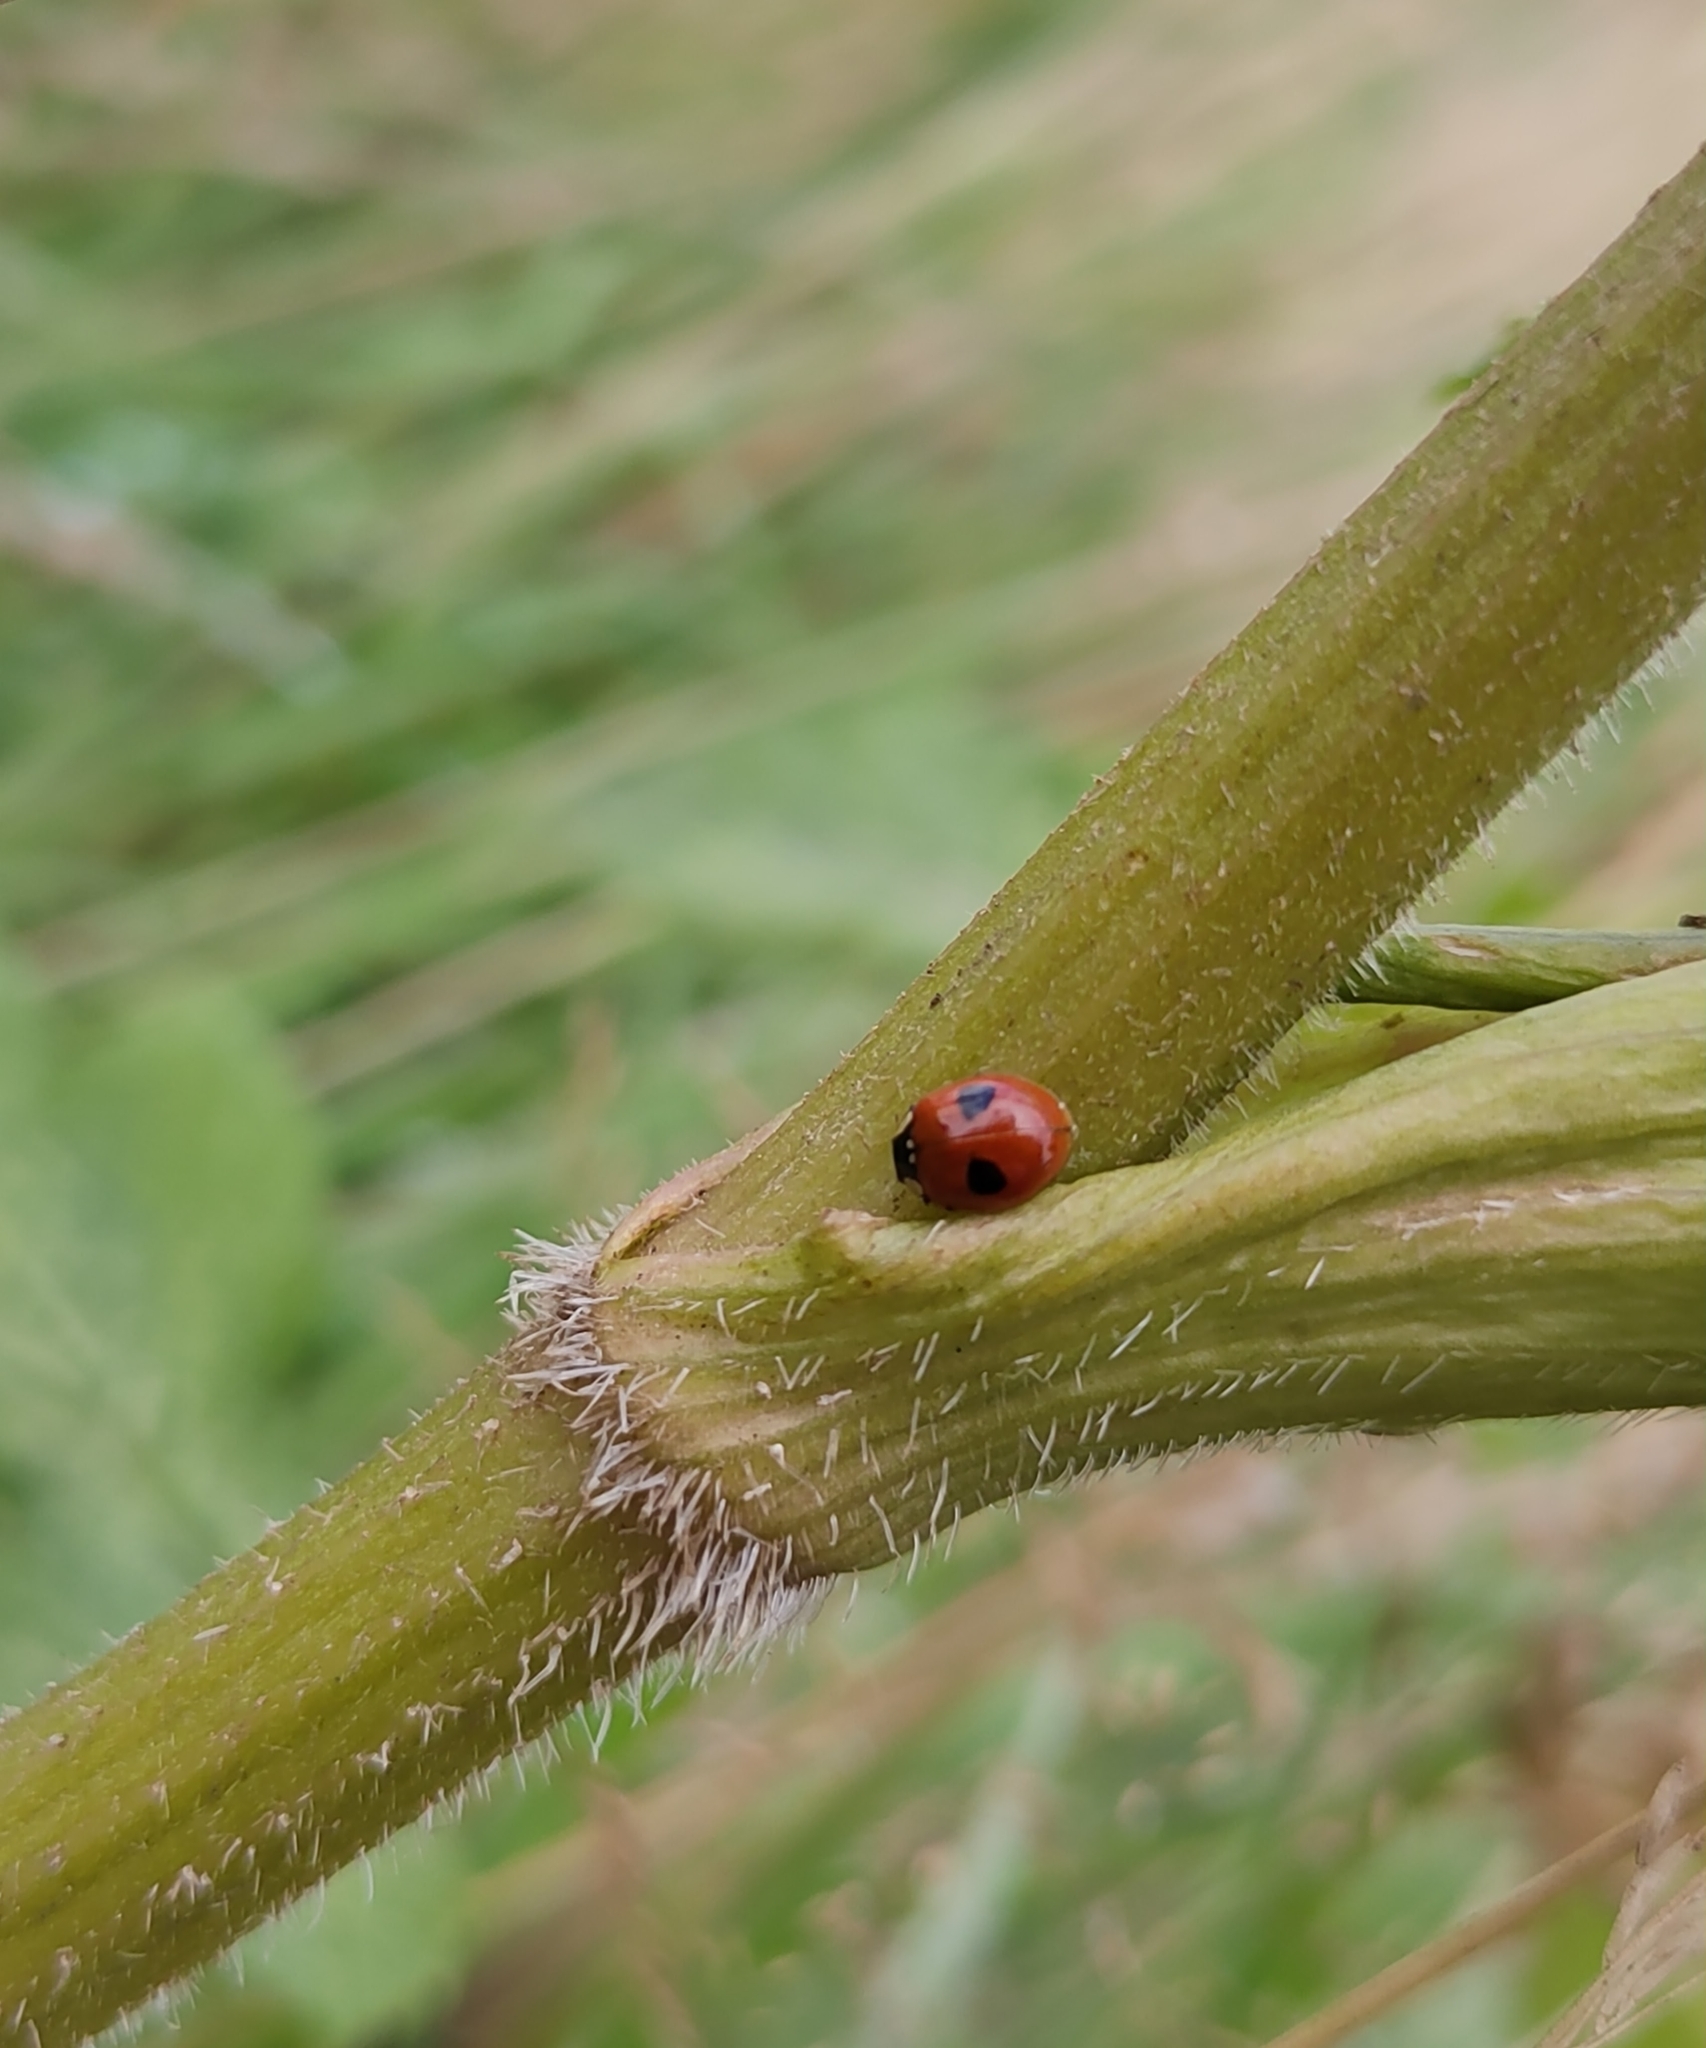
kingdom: Animalia
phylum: Arthropoda
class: Insecta
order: Coleoptera
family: Coccinellidae
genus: Adalia
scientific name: Adalia bipunctata
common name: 2-spot ladybird
